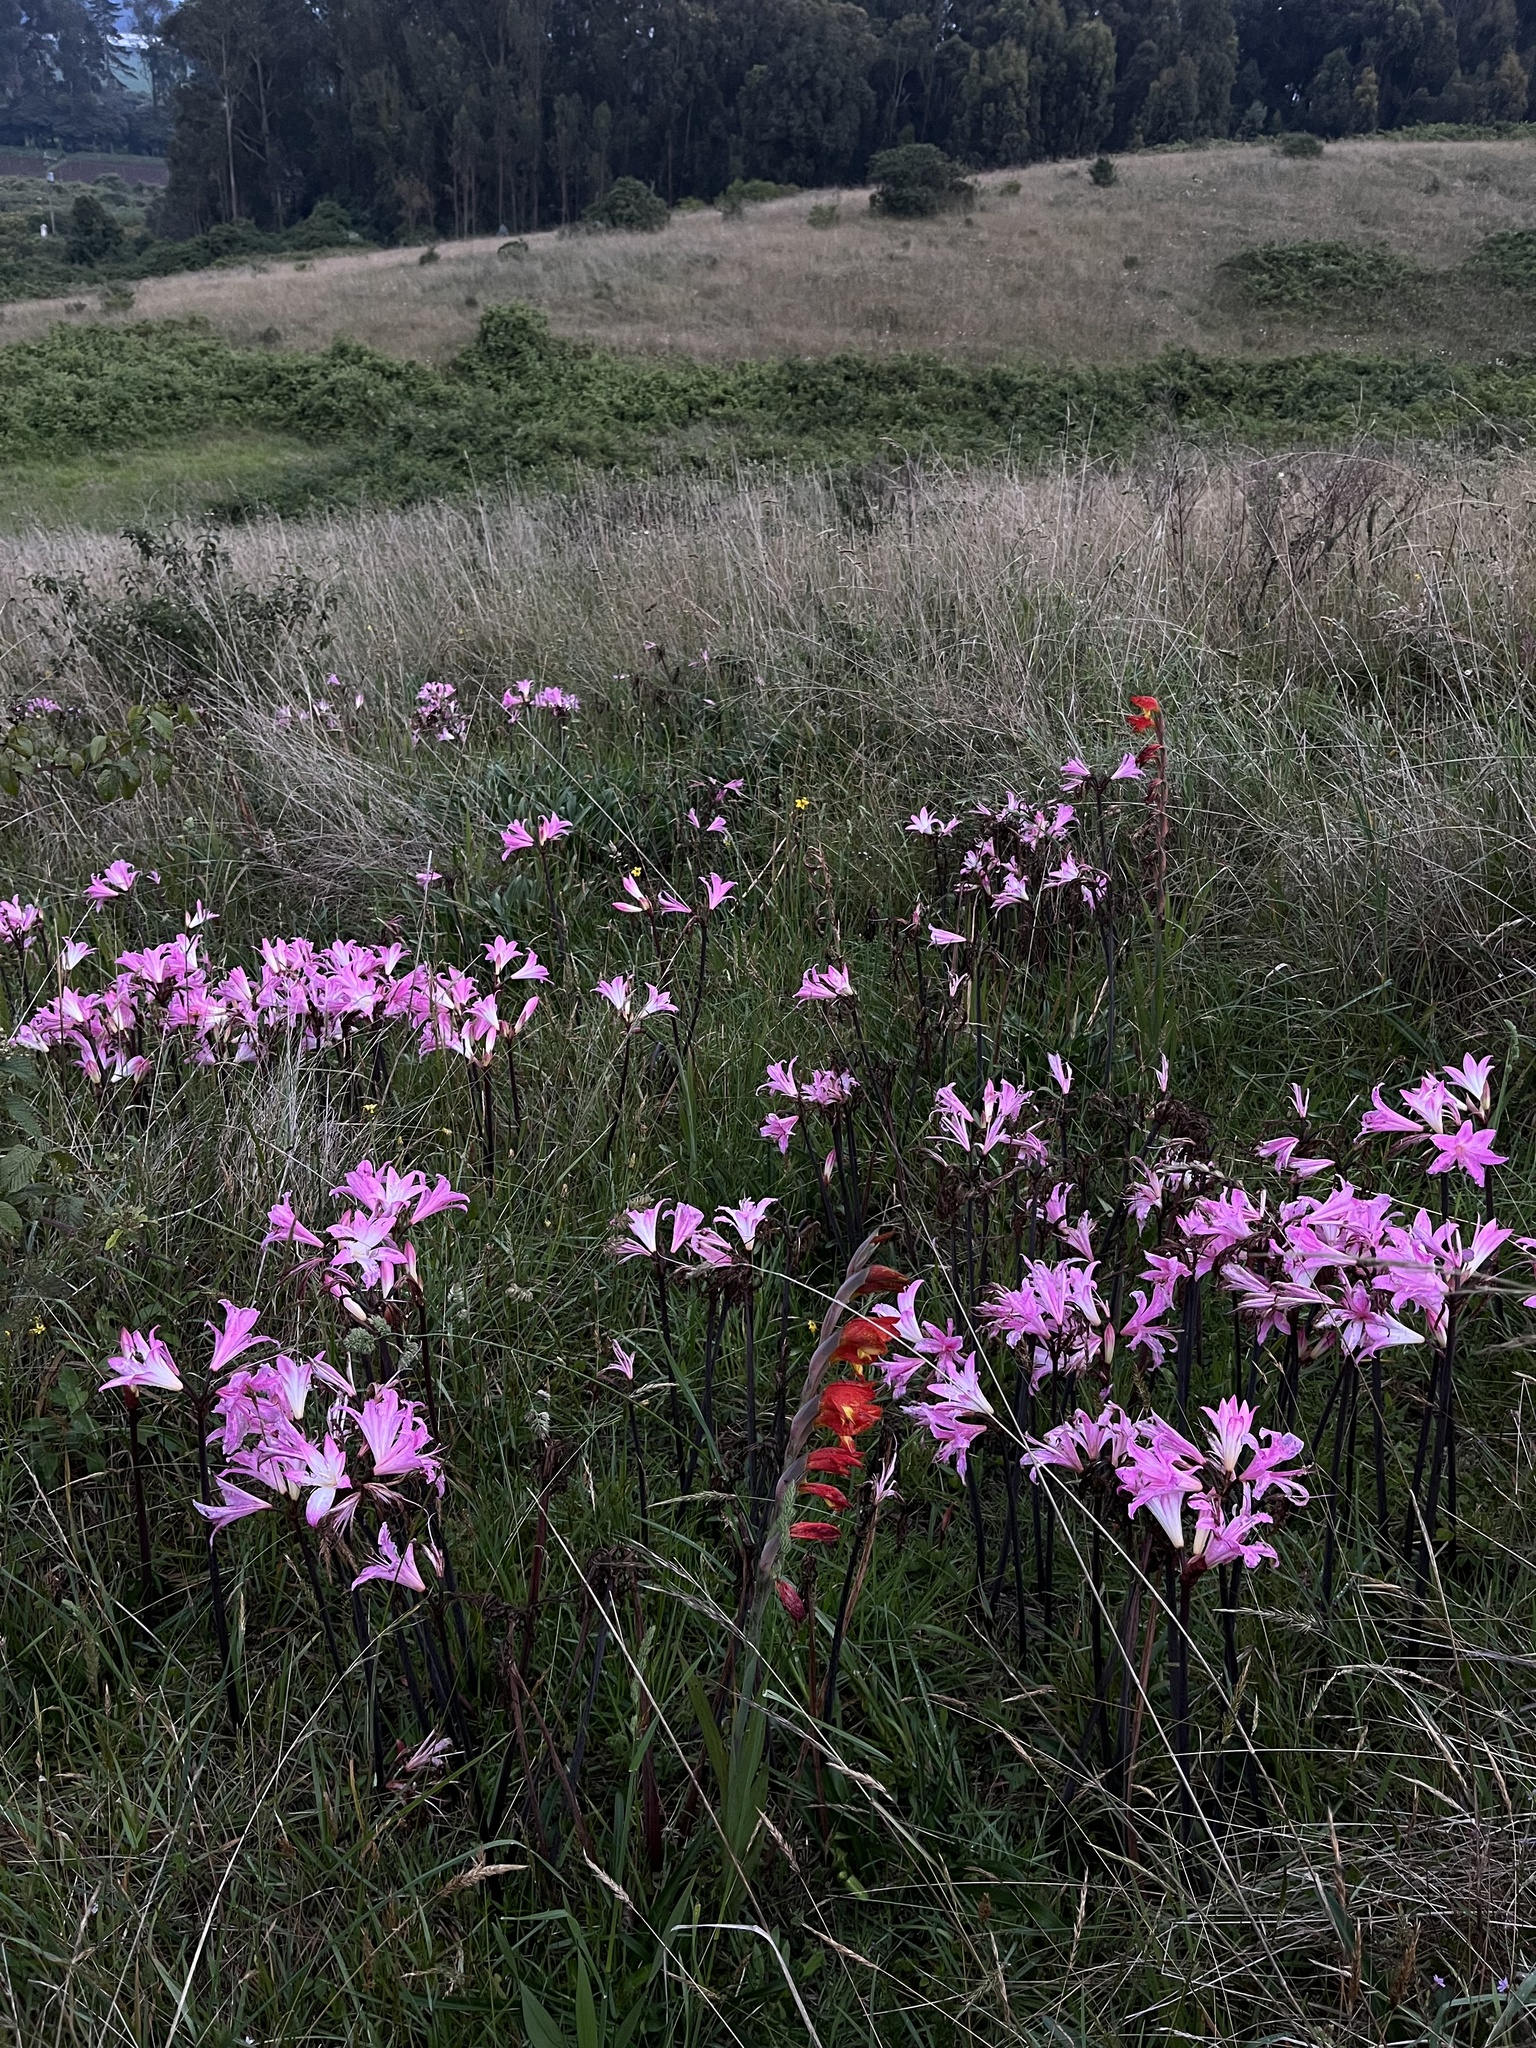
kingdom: Plantae
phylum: Tracheophyta
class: Liliopsida
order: Asparagales
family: Amaryllidaceae
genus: Amaryllis
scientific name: Amaryllis belladonna
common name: Jersey lily
